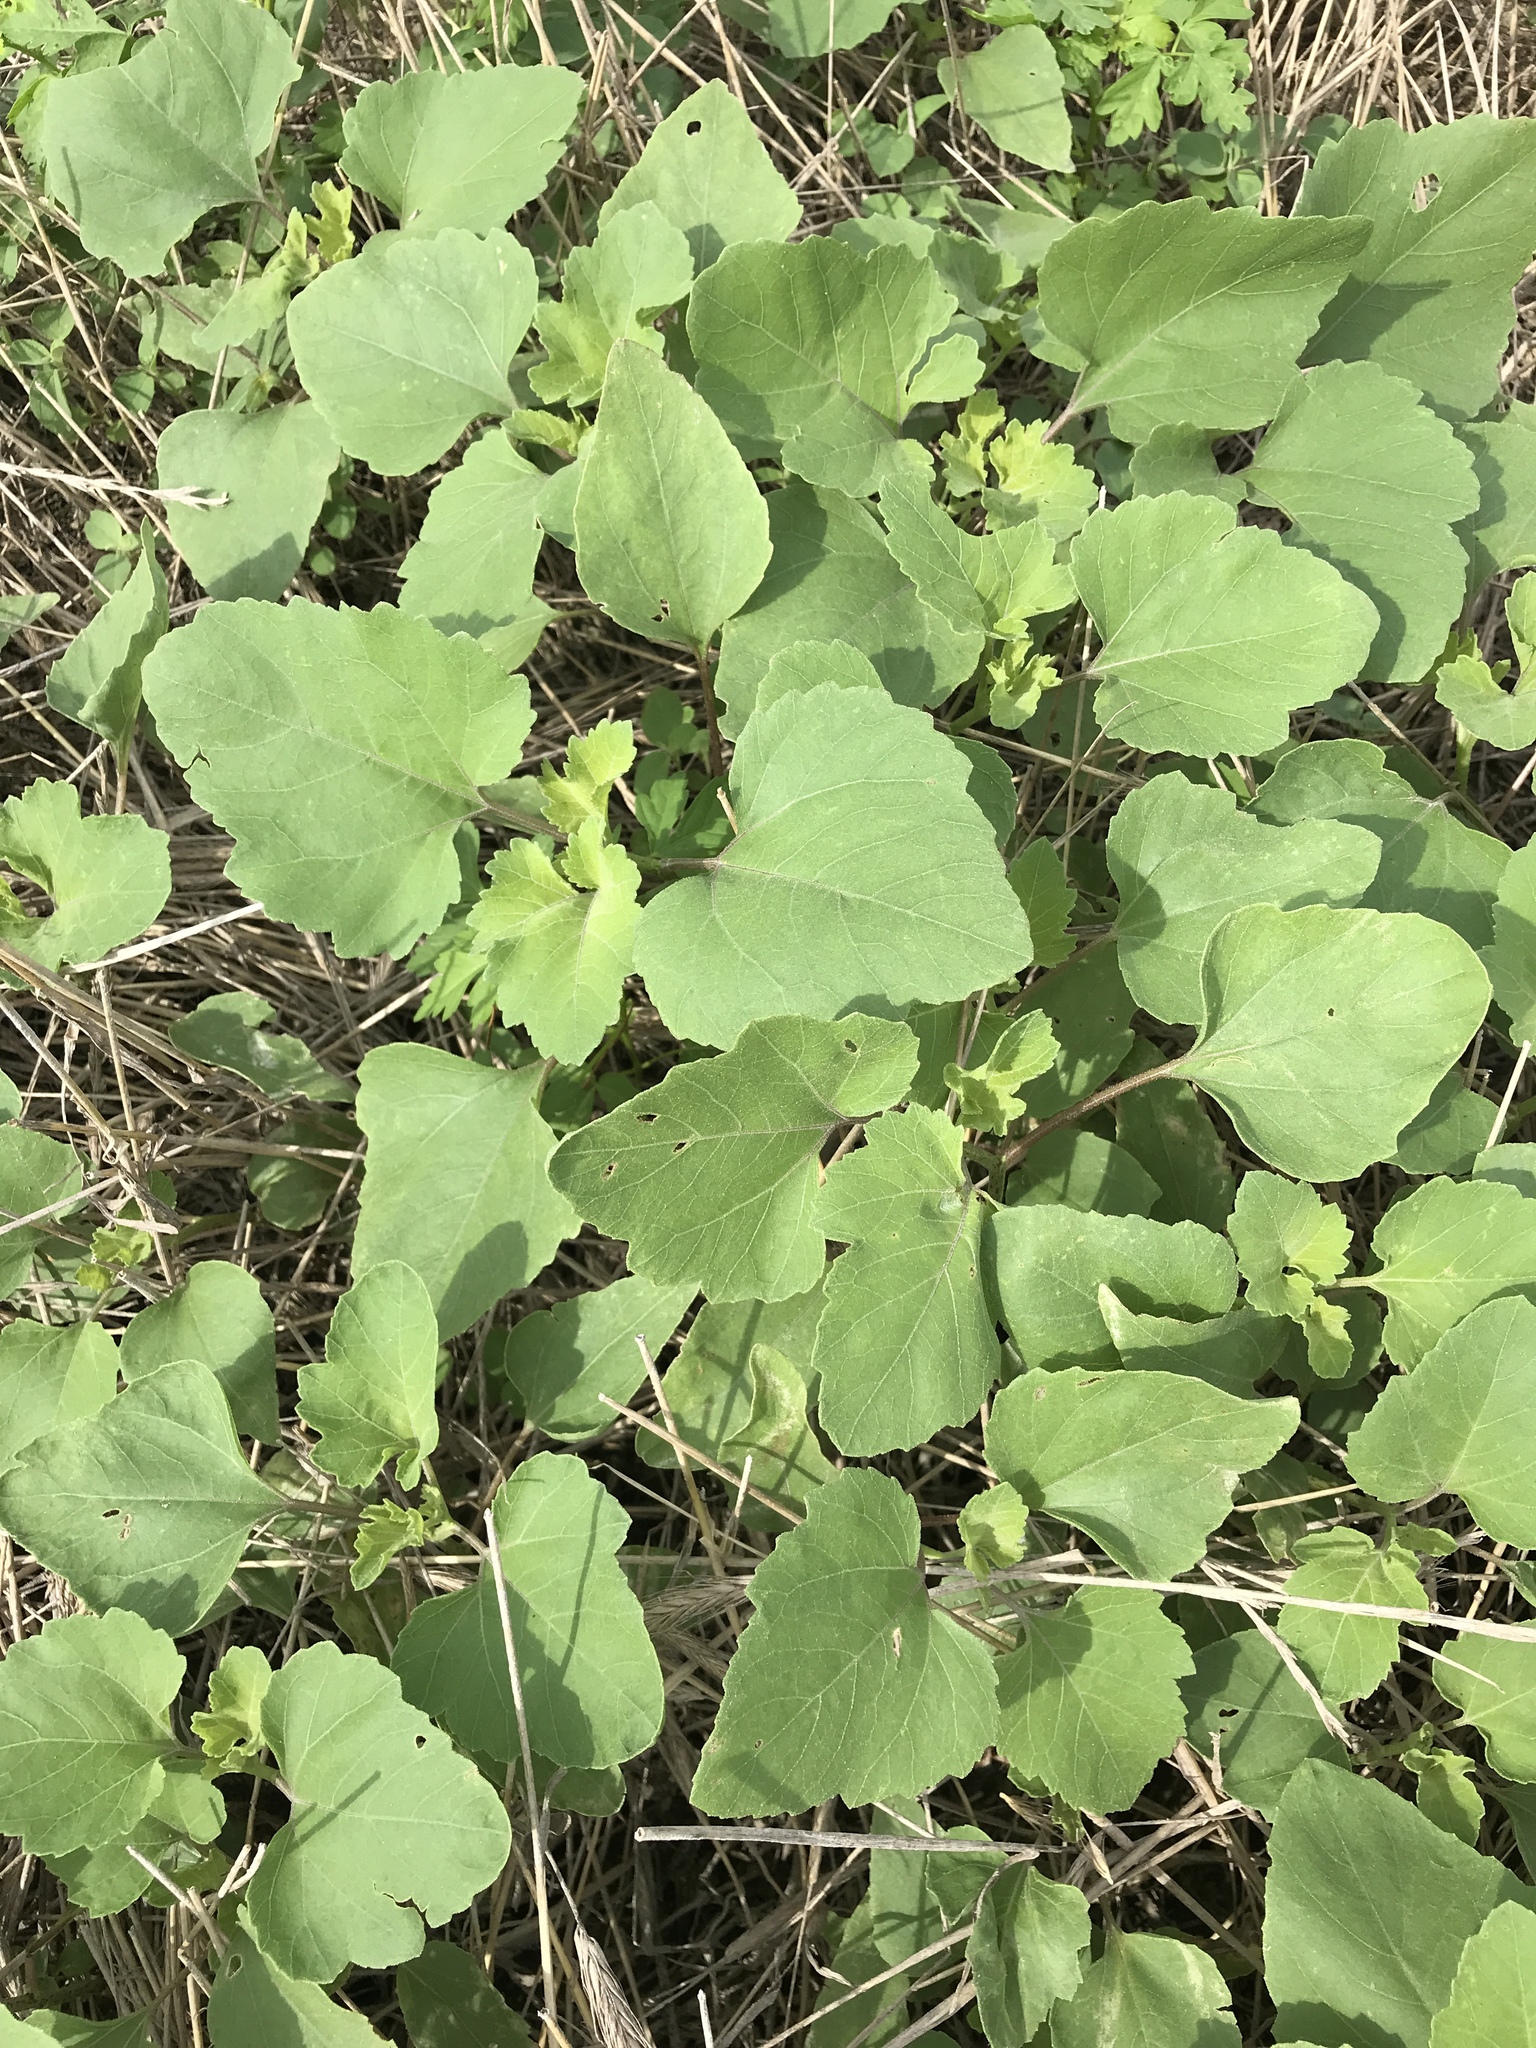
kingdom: Plantae
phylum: Tracheophyta
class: Magnoliopsida
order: Asterales
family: Asteraceae
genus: Xanthium
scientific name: Xanthium strumarium
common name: Rough cocklebur
